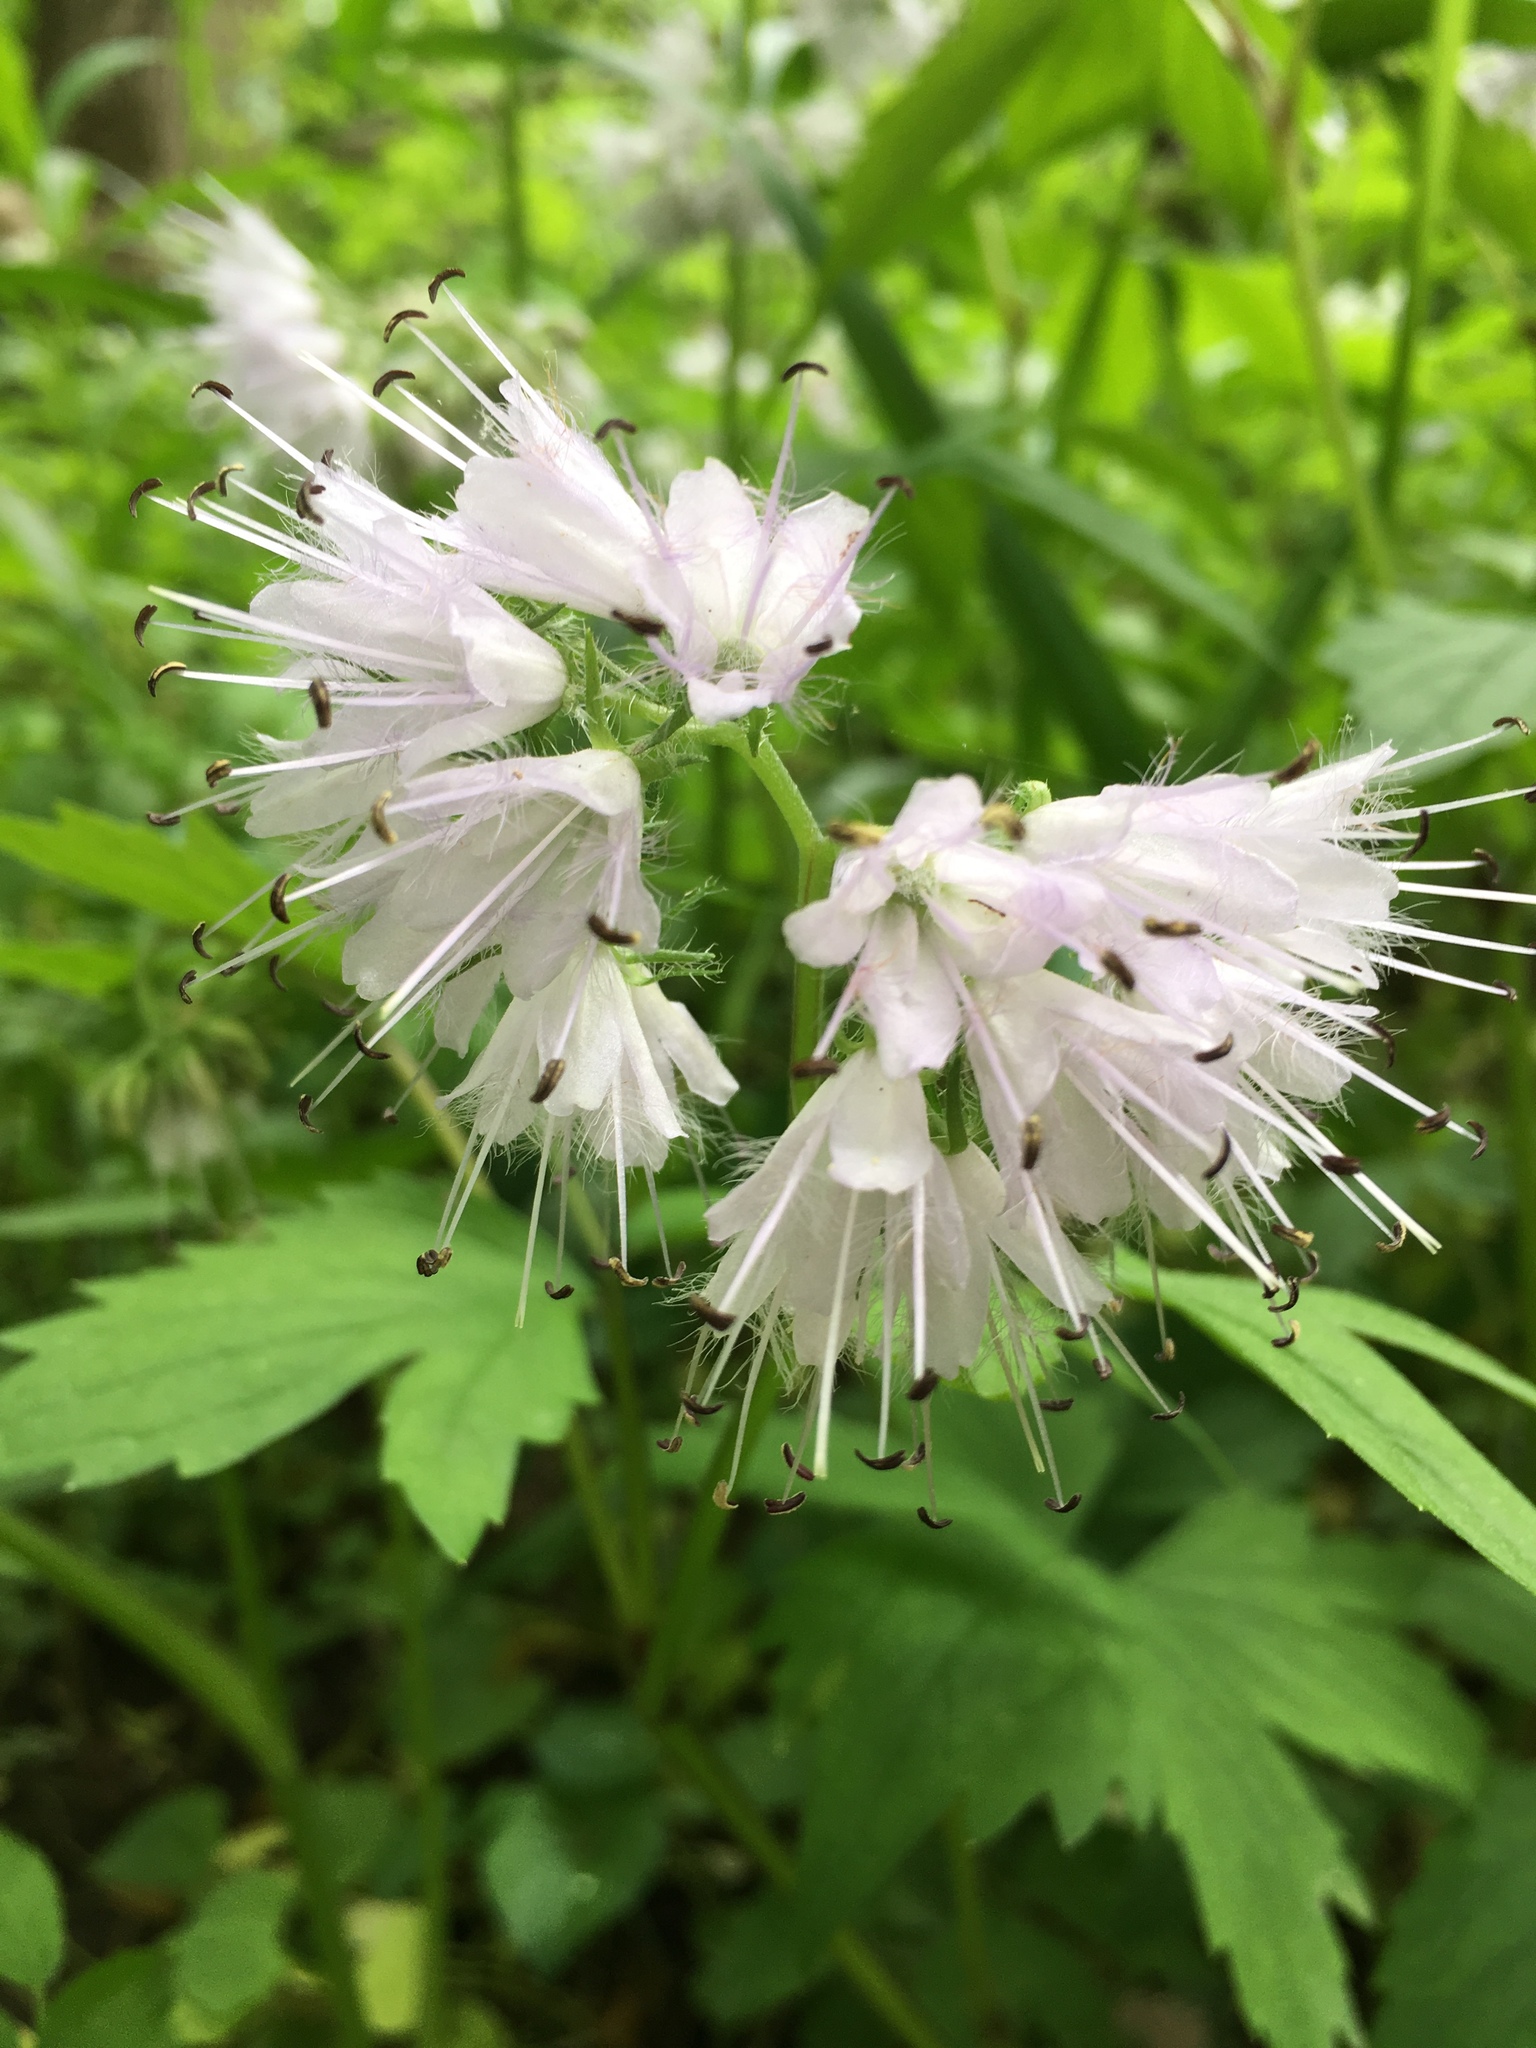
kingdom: Plantae
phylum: Tracheophyta
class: Magnoliopsida
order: Boraginales
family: Hydrophyllaceae
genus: Hydrophyllum
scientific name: Hydrophyllum virginianum
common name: Virginia waterleaf
